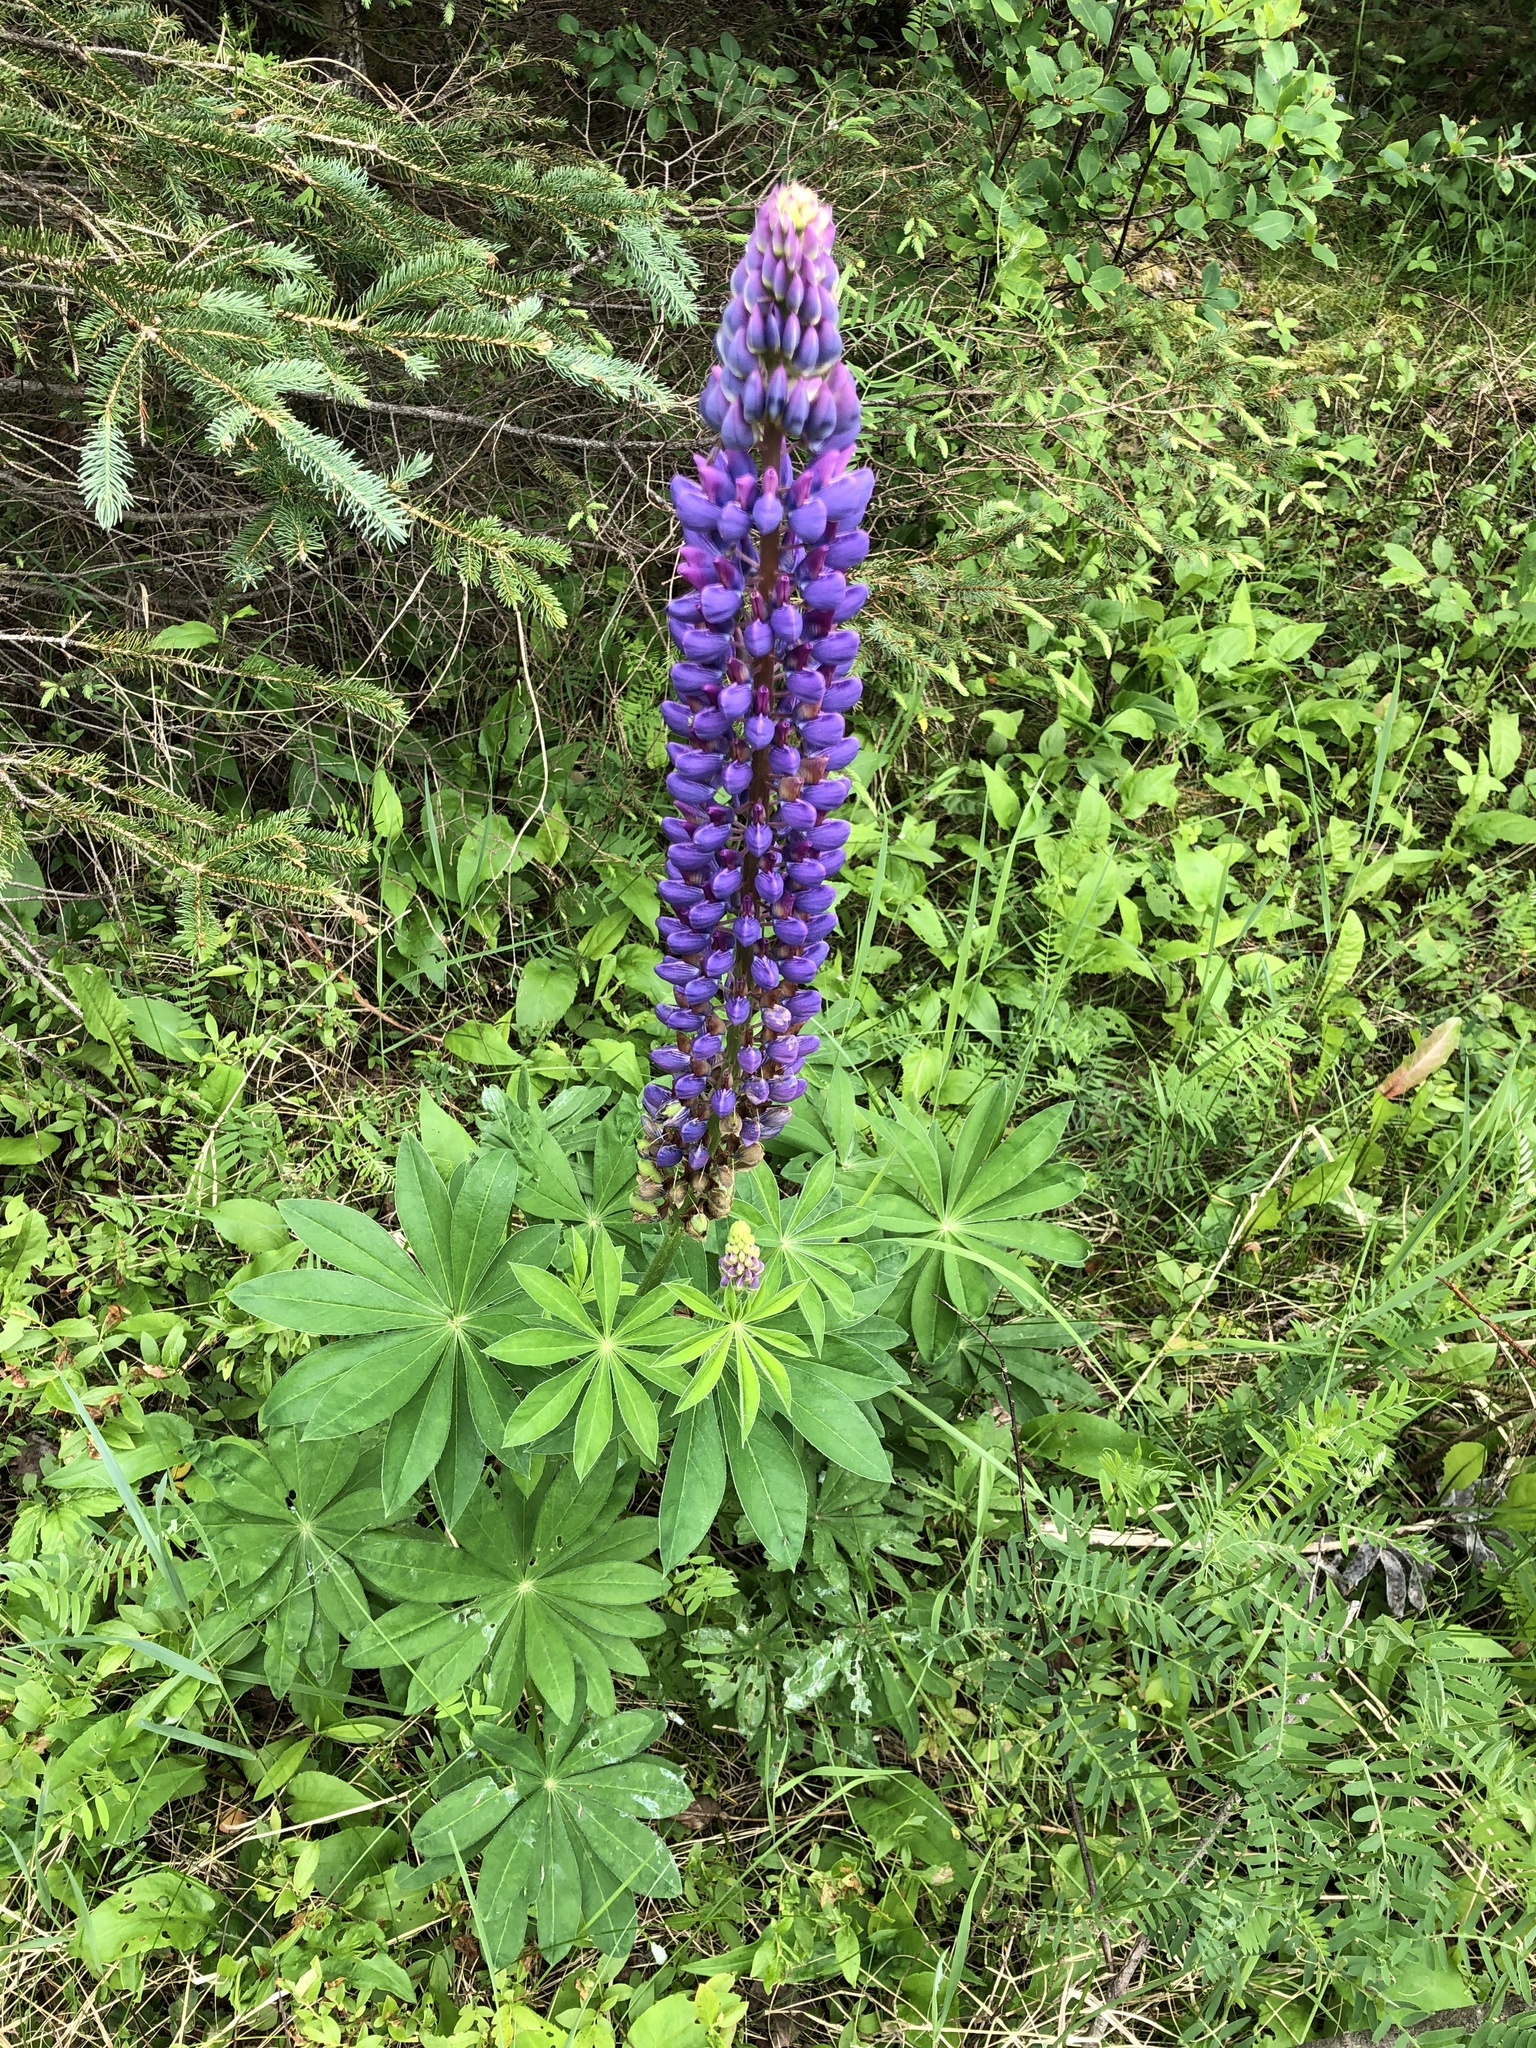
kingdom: Plantae
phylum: Tracheophyta
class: Magnoliopsida
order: Fabales
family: Fabaceae
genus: Lupinus
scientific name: Lupinus polyphyllus
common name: Garden lupin
